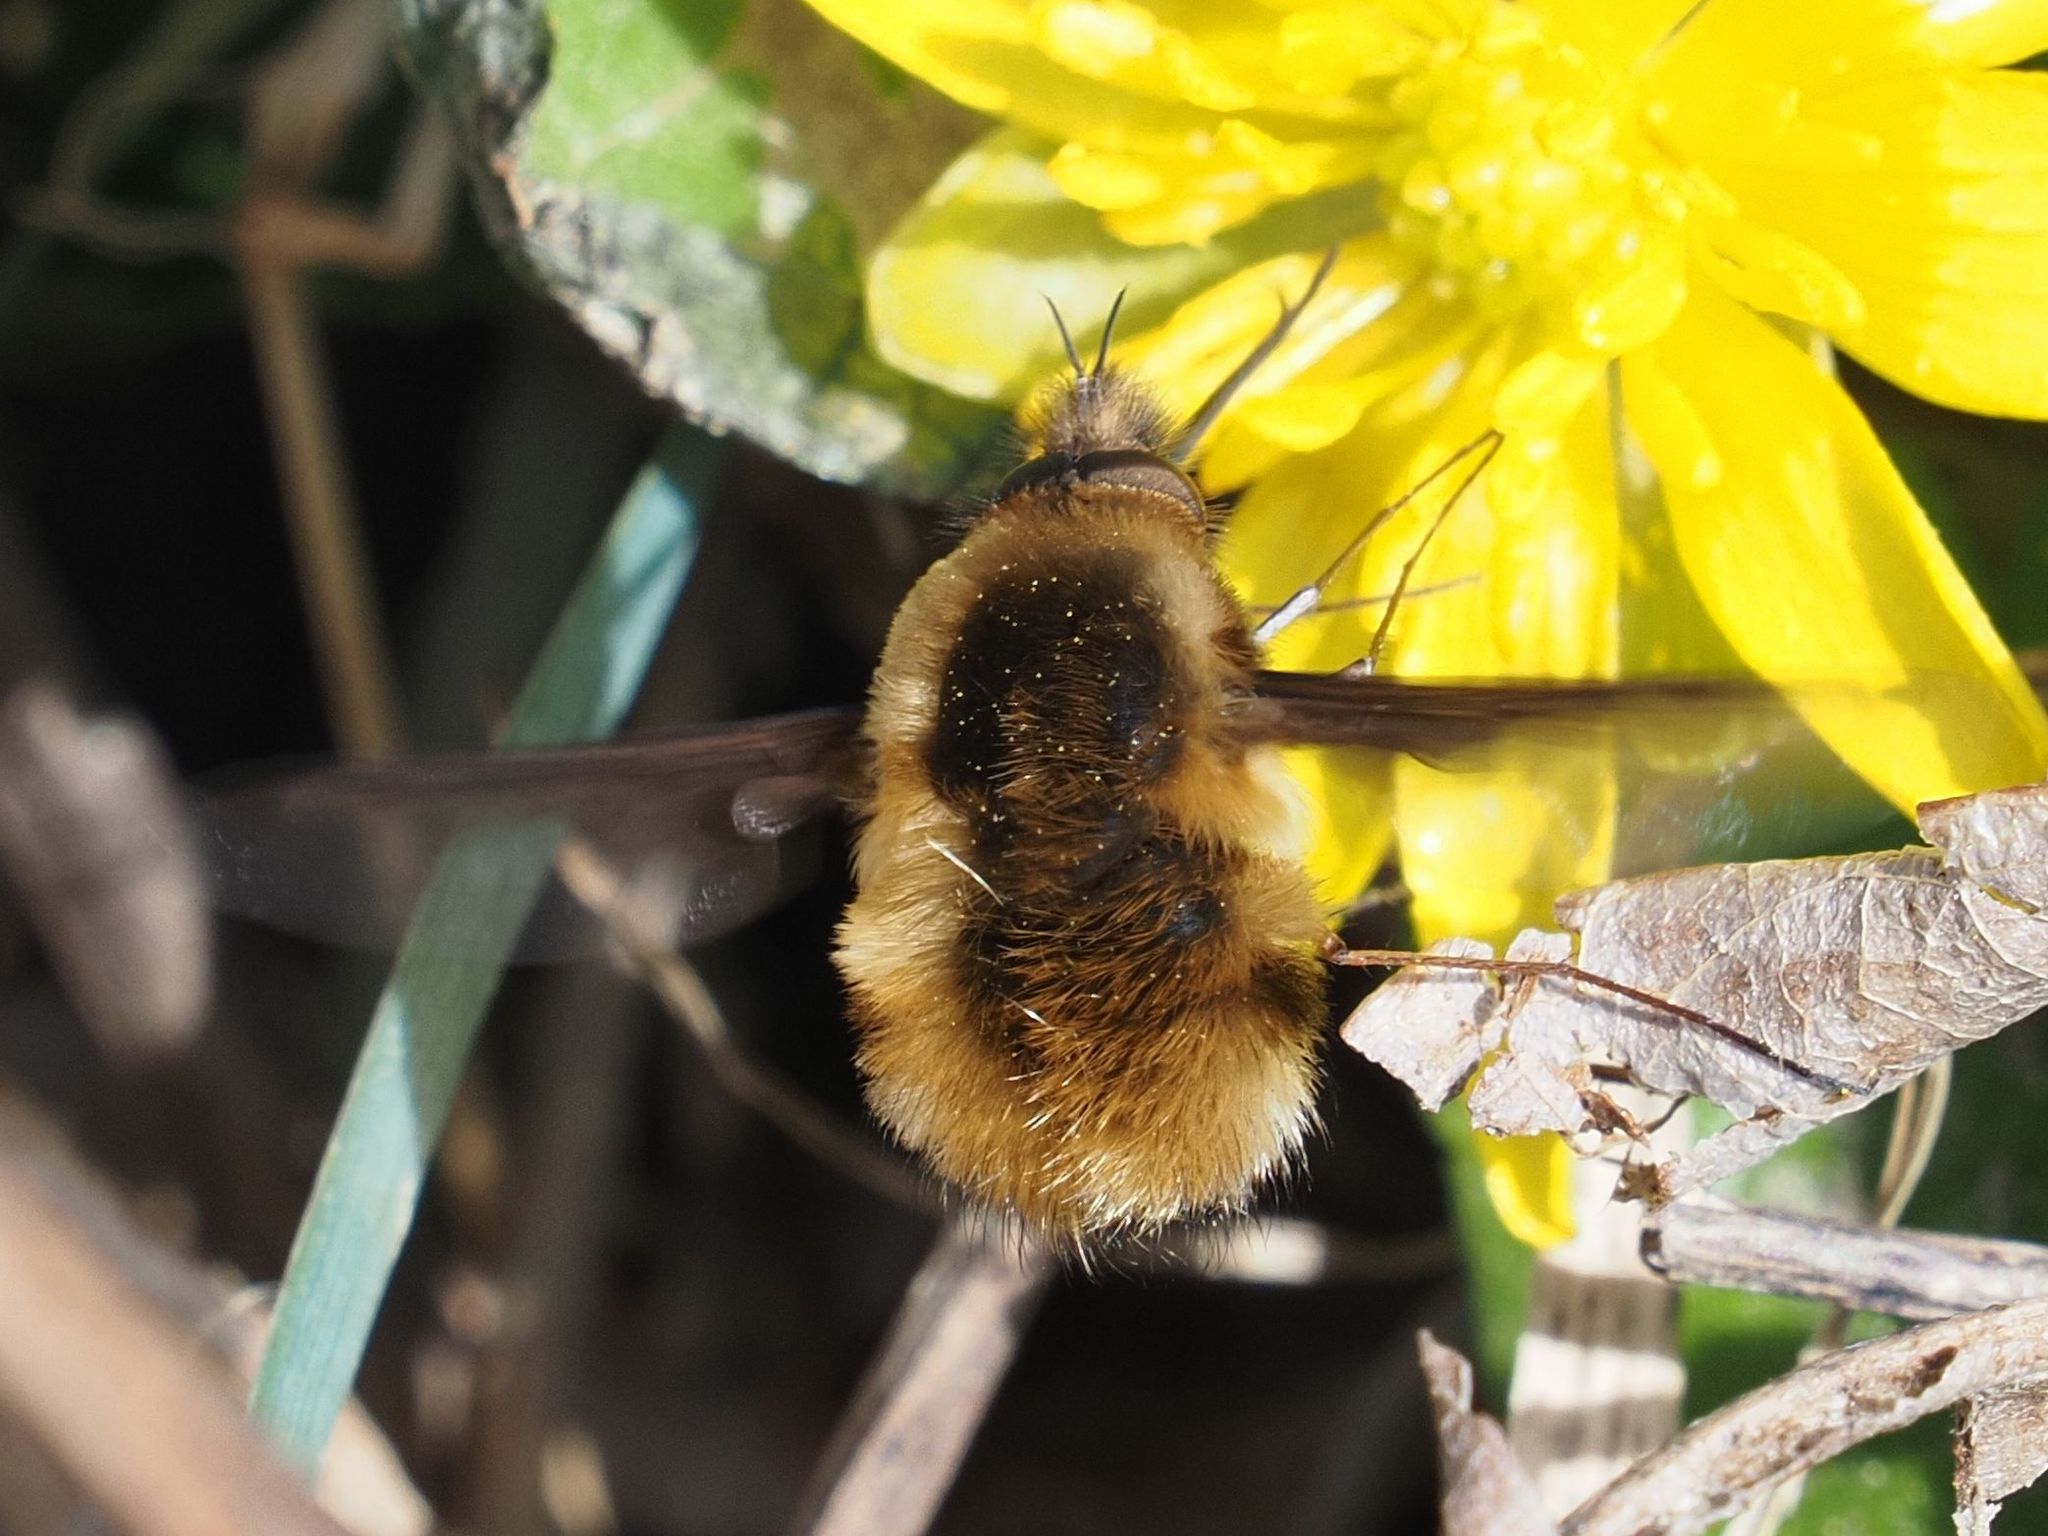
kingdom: Animalia
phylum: Arthropoda
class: Insecta
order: Diptera
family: Bombyliidae
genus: Bombylius
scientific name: Bombylius major
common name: Bee fly
